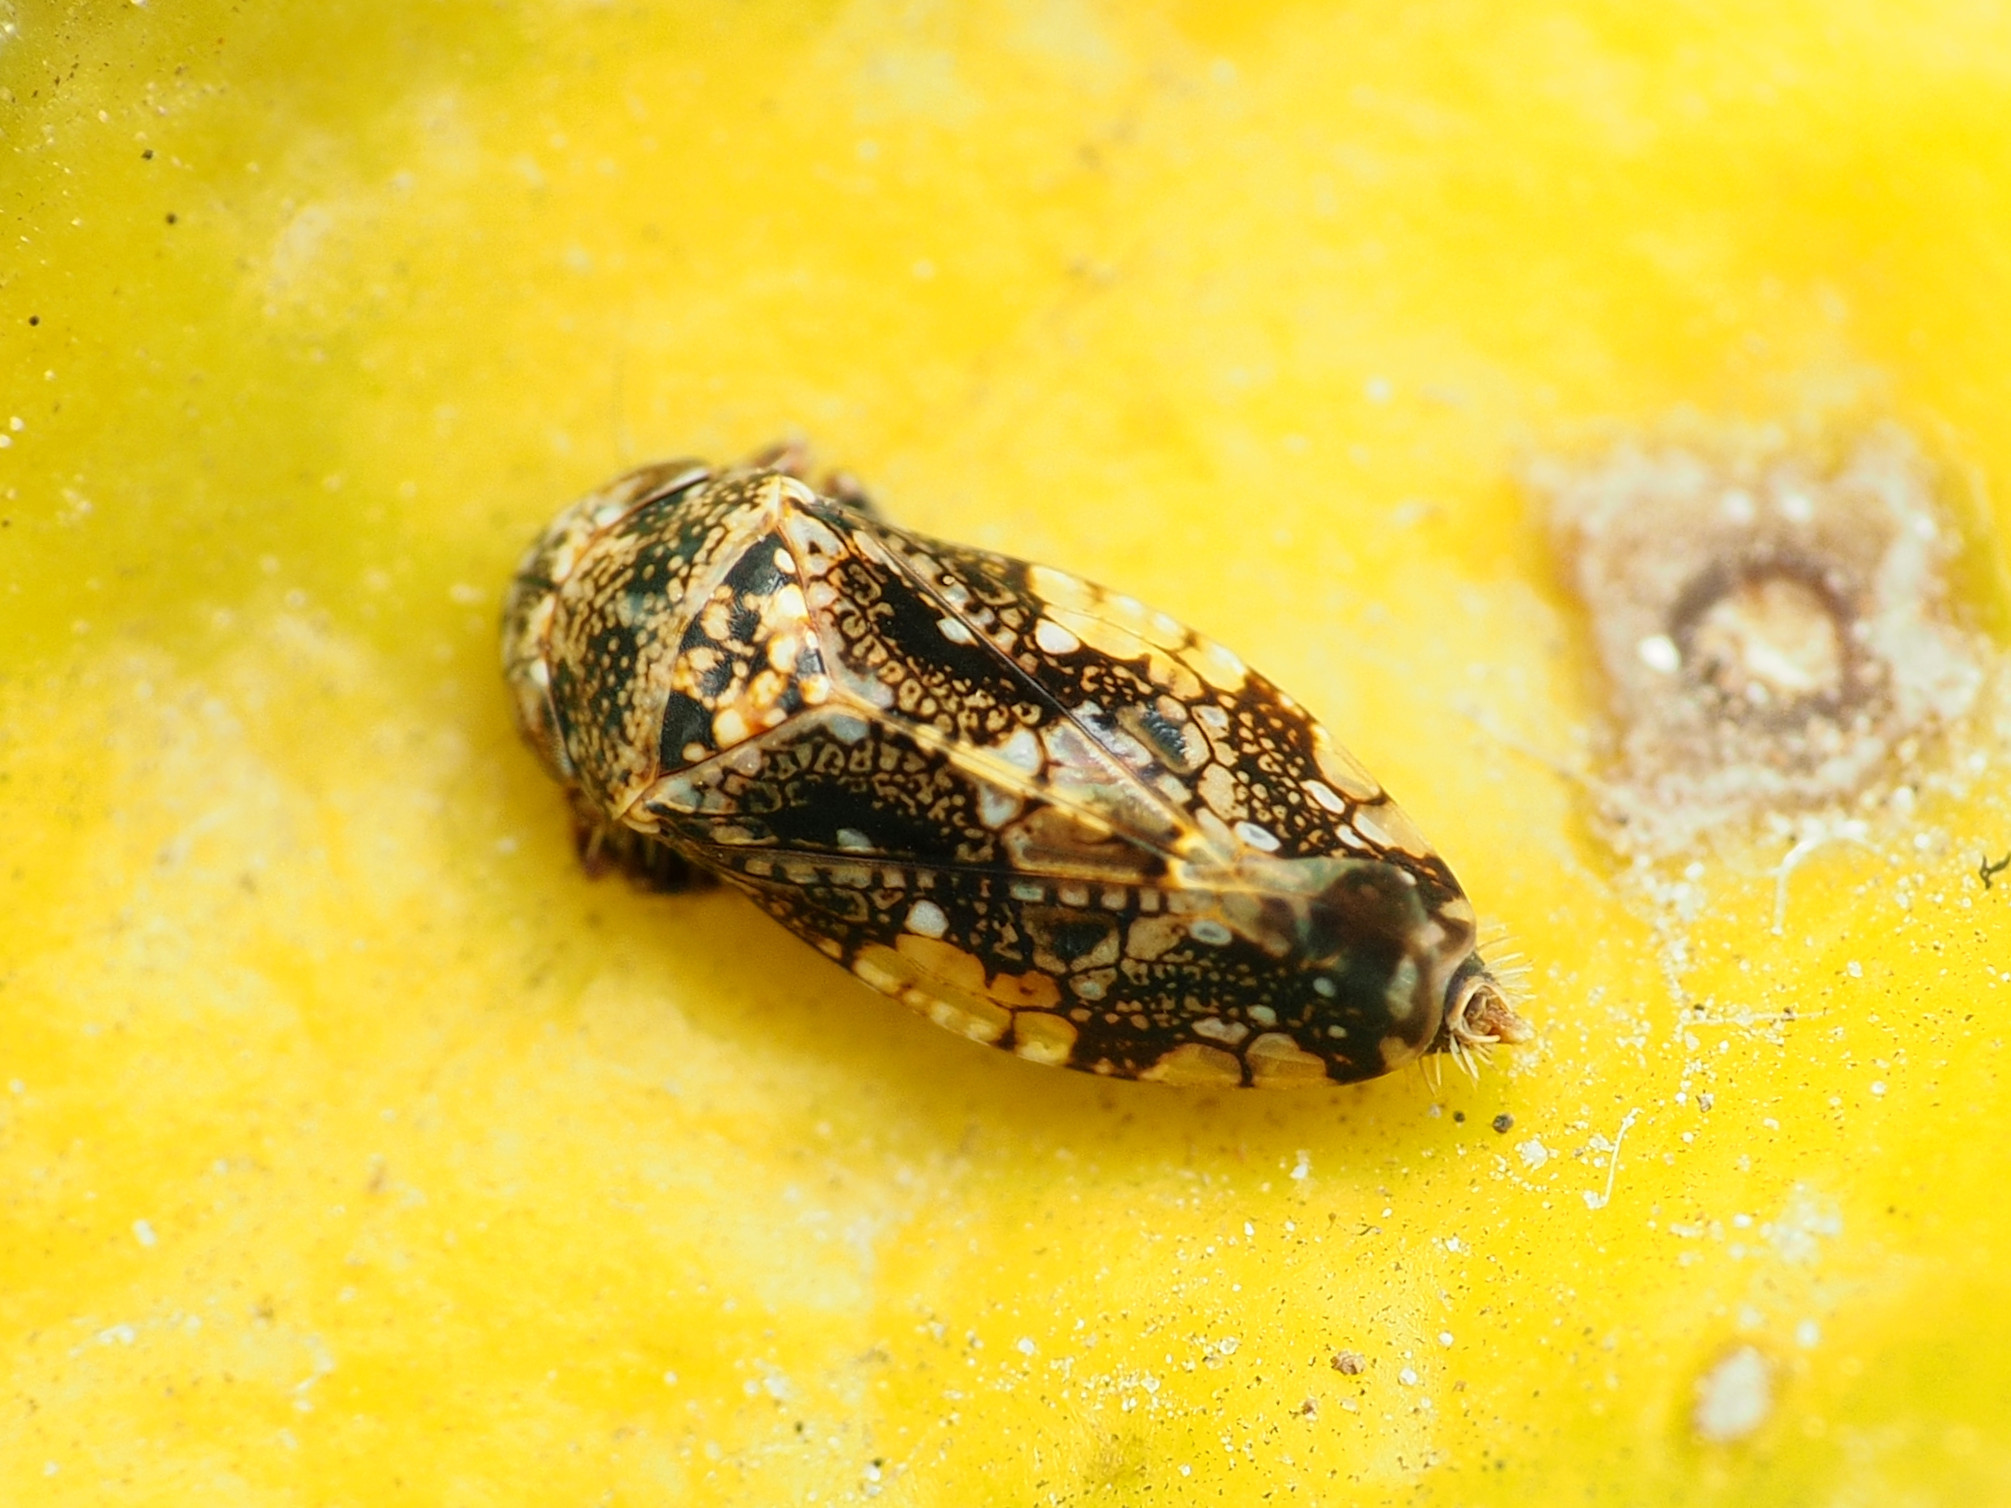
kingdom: Animalia
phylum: Arthropoda
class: Insecta
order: Hemiptera
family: Cicadellidae
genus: Penthimiola
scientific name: Penthimiola bella
